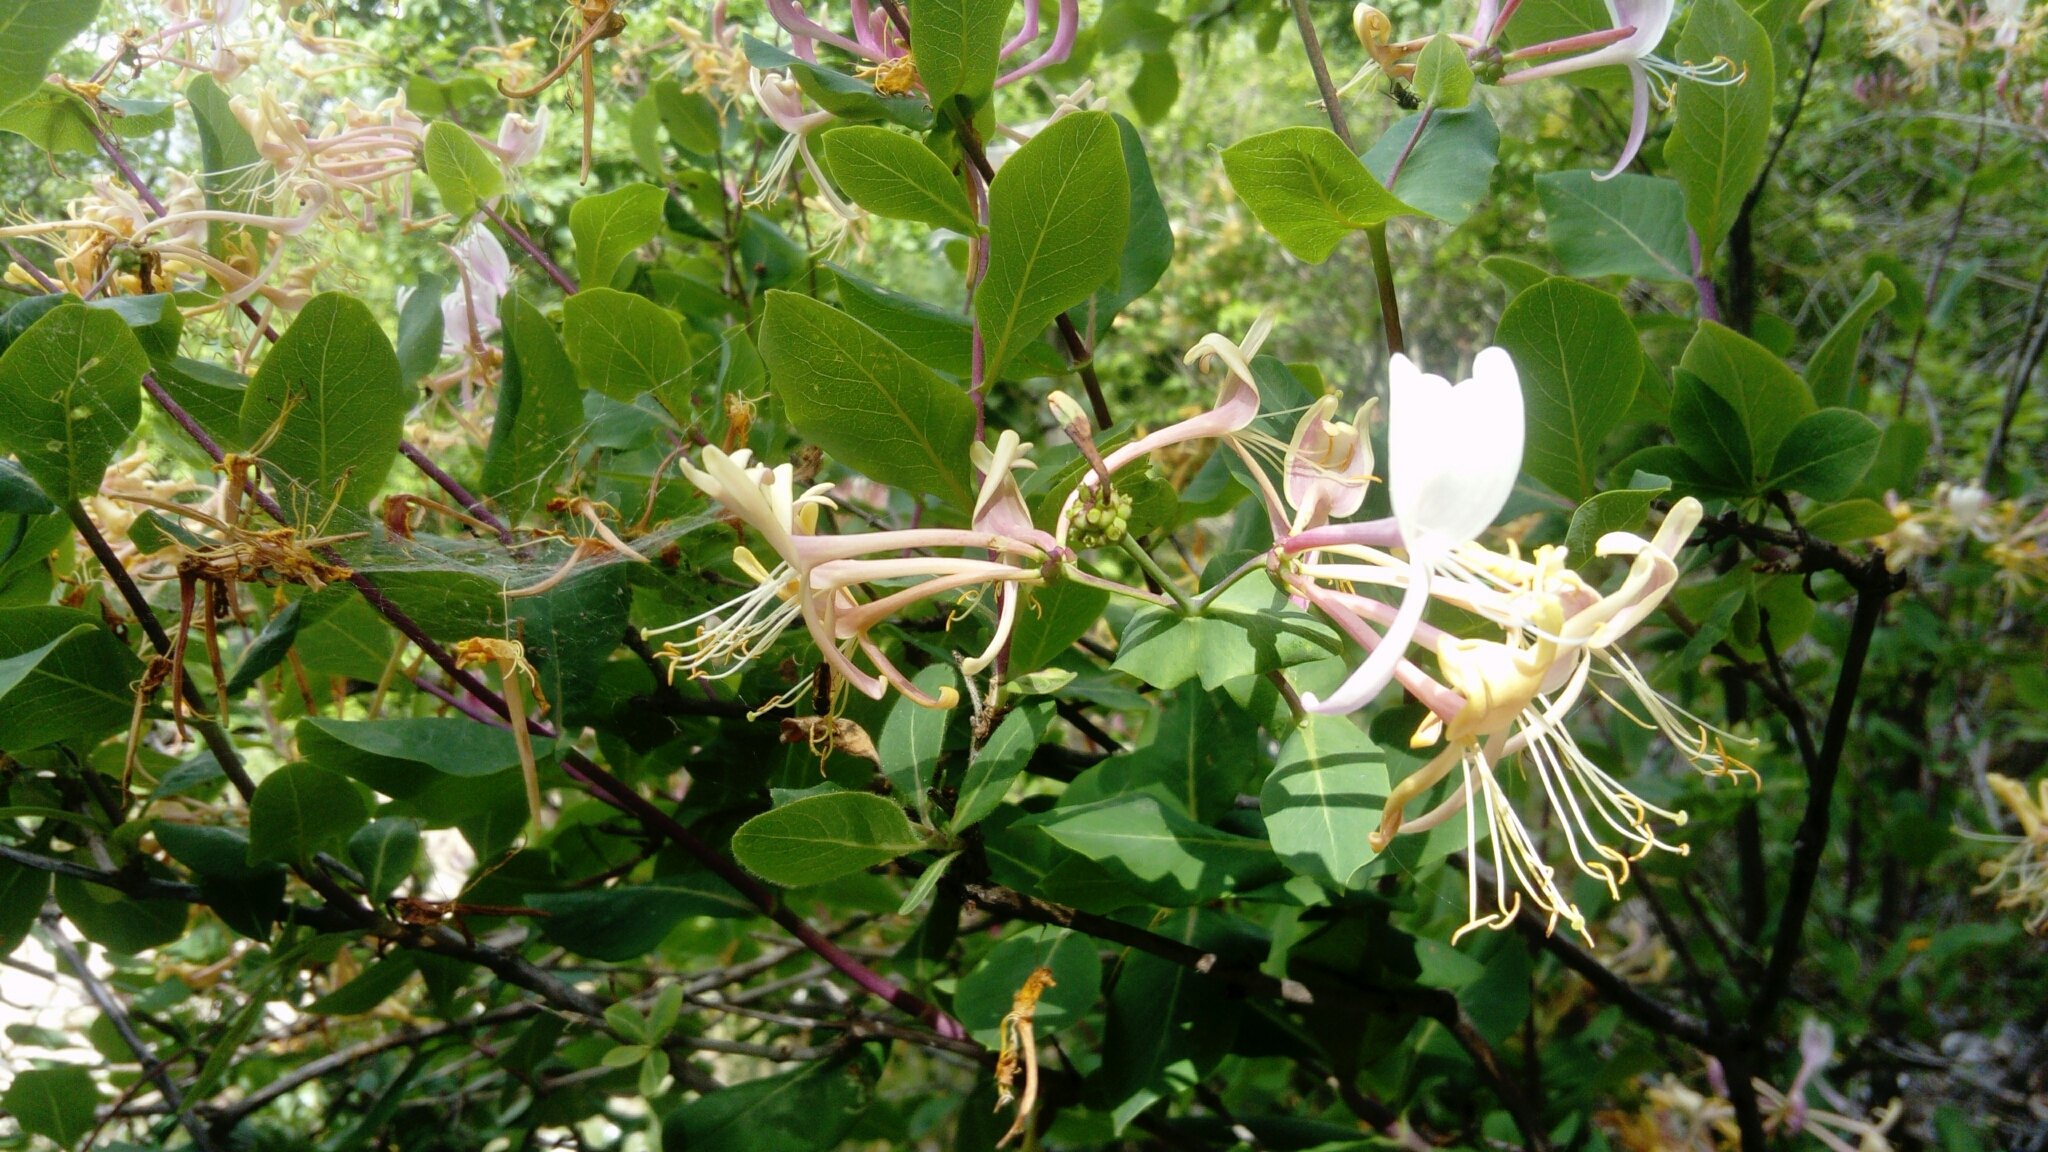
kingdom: Plantae
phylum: Tracheophyta
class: Magnoliopsida
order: Dipsacales
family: Caprifoliaceae
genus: Lonicera
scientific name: Lonicera etrusca
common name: Etruscan honeysuckle
